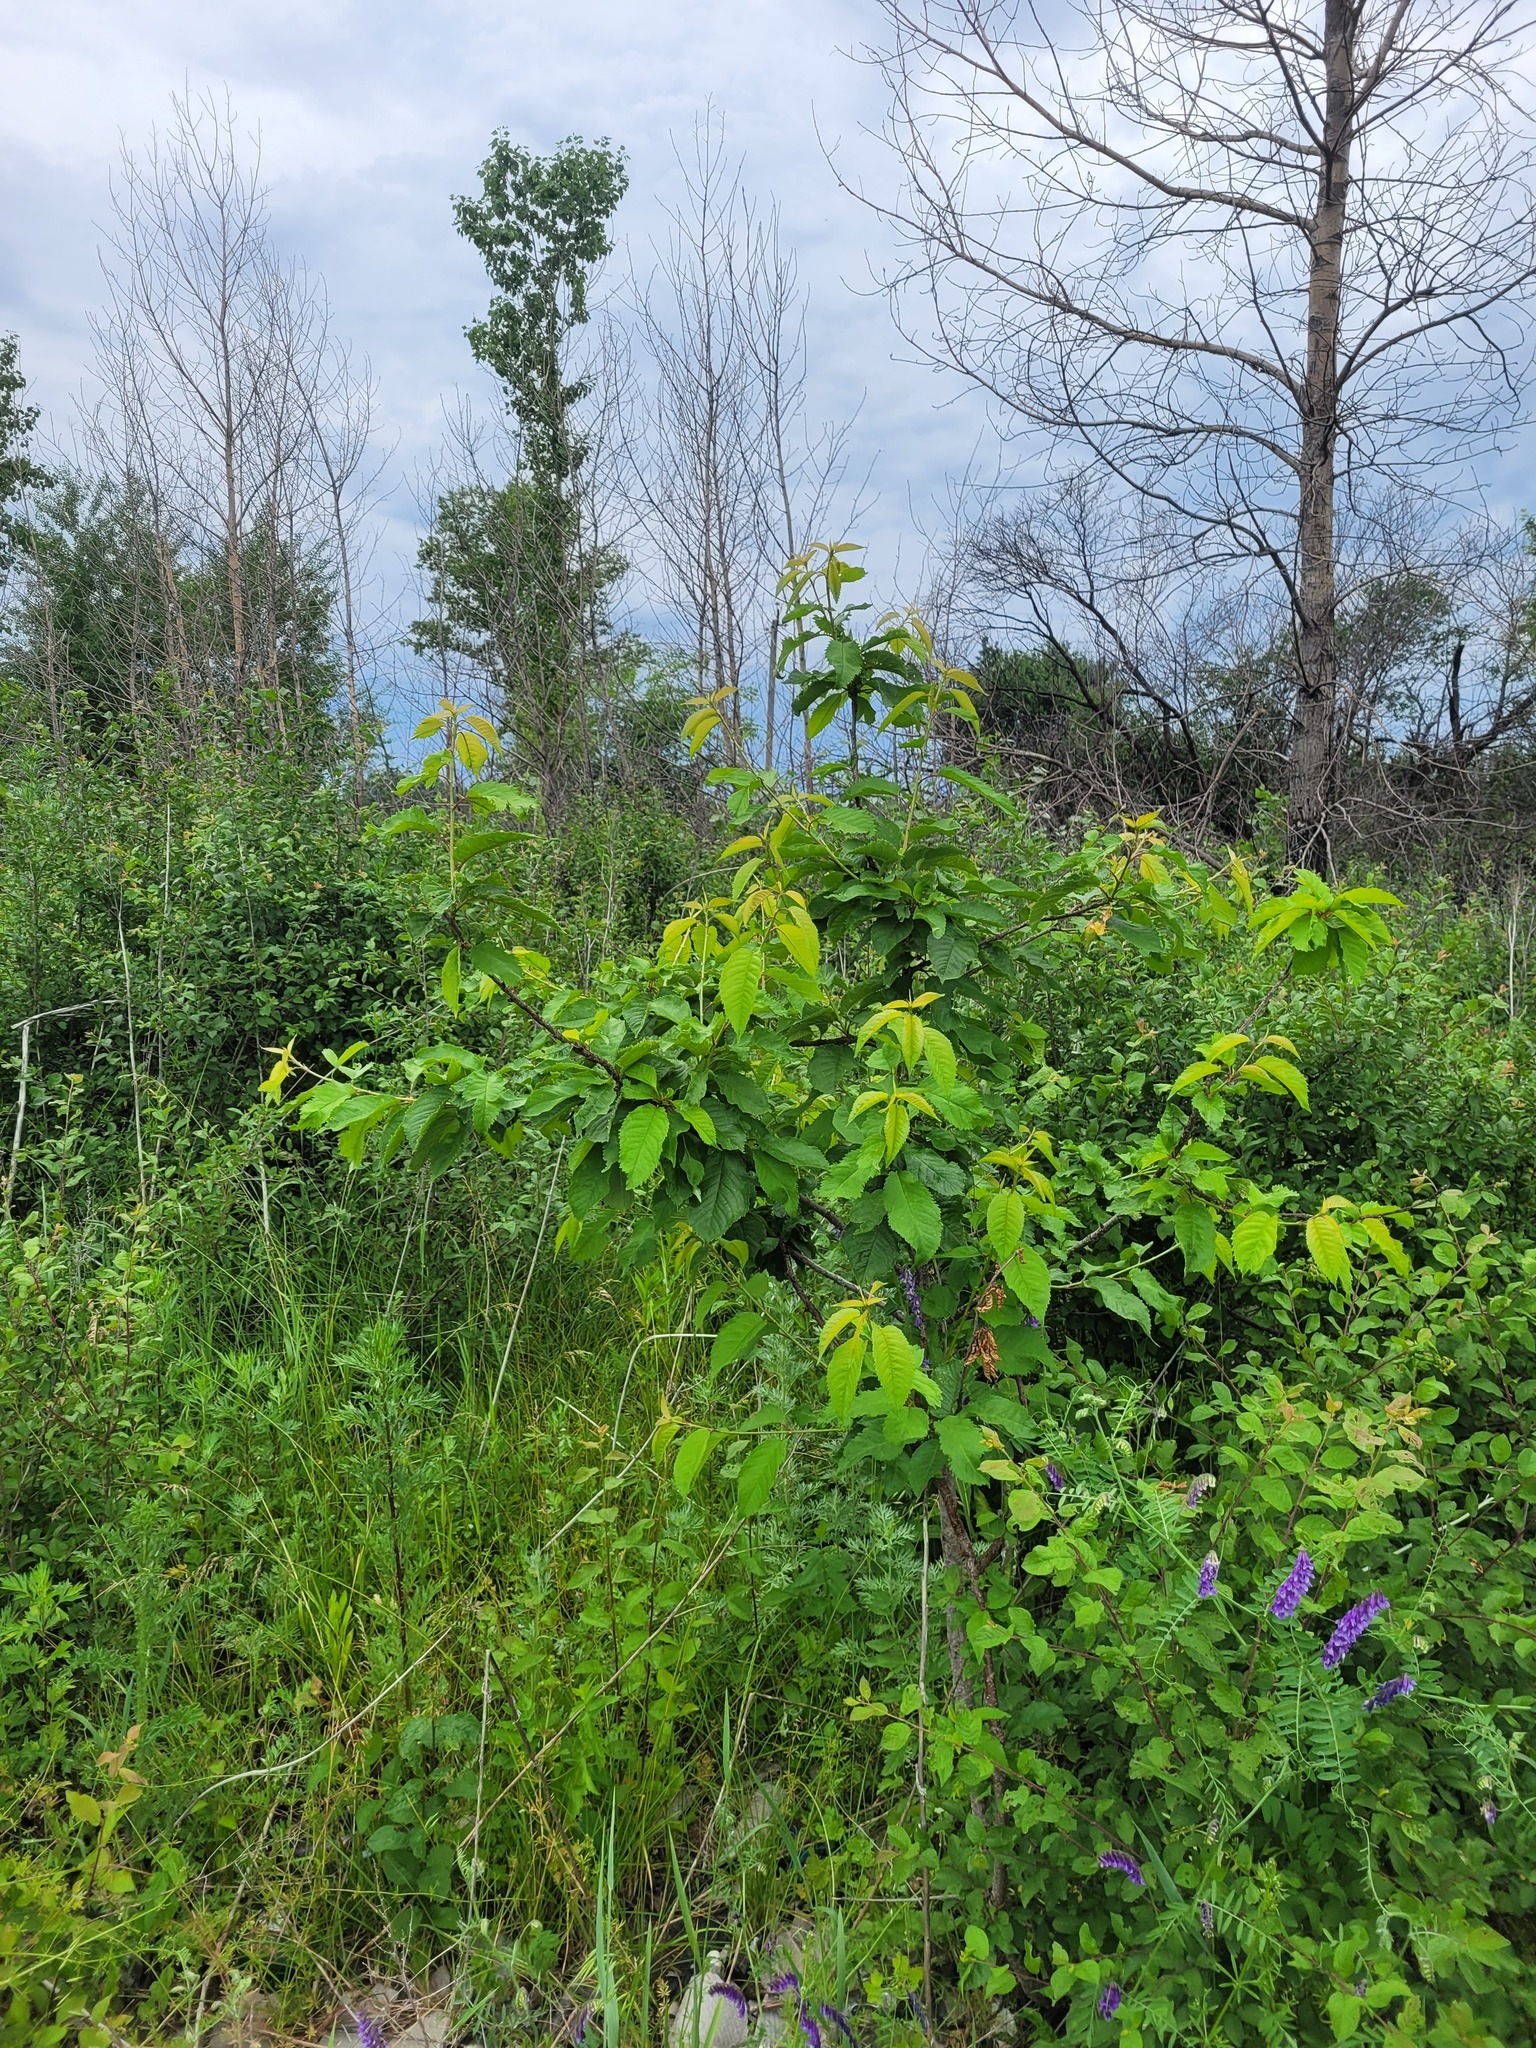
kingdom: Plantae
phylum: Tracheophyta
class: Magnoliopsida
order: Rosales
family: Rosaceae
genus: Prunus
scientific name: Prunus avium
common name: Sweet cherry
